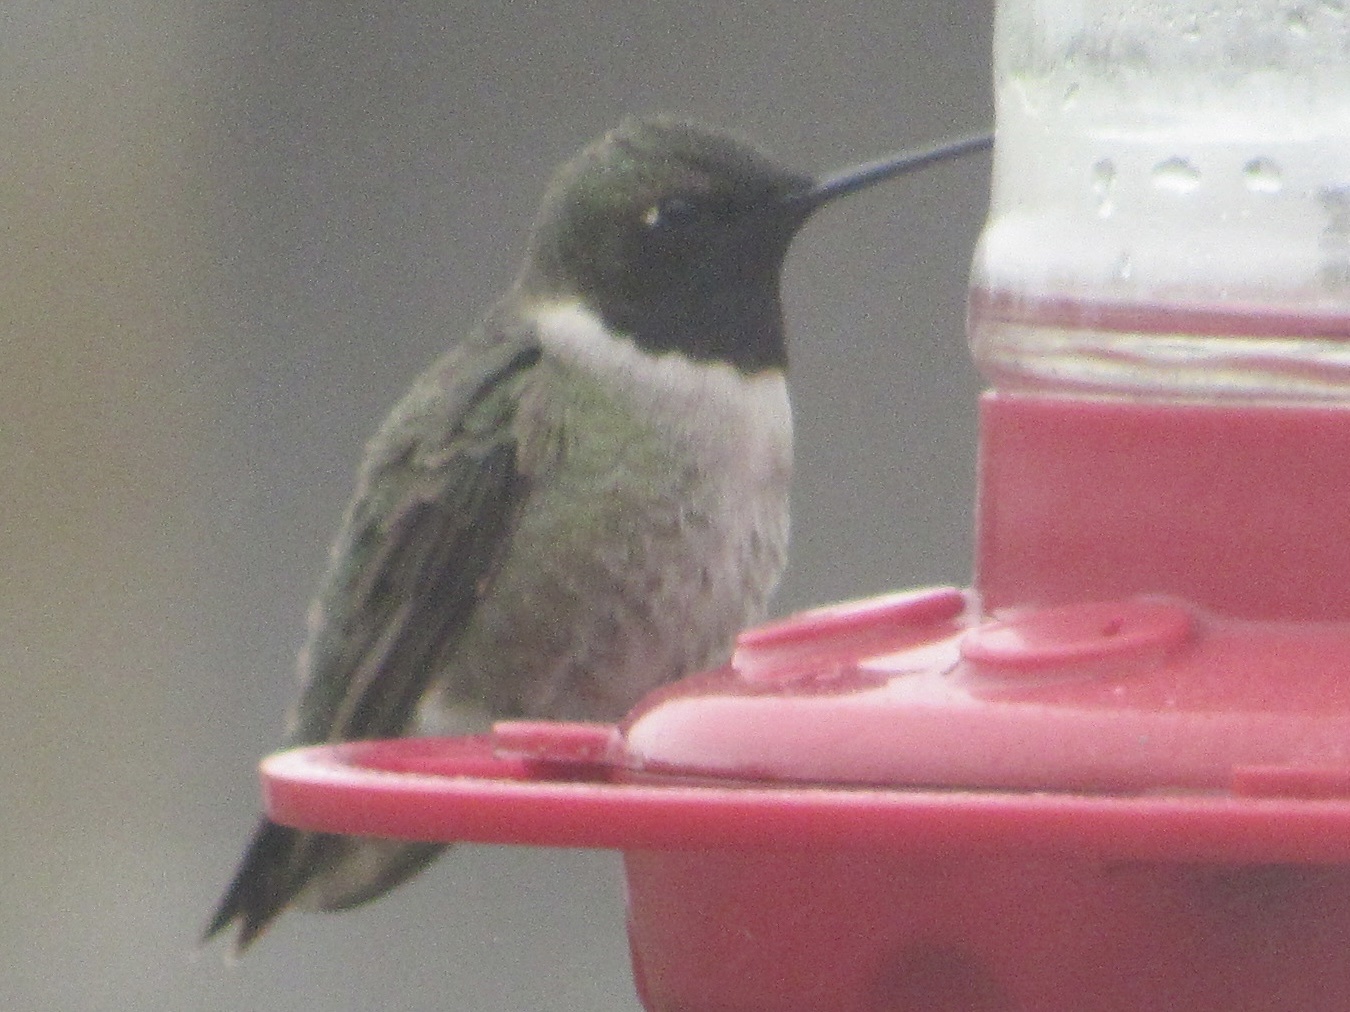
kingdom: Animalia
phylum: Chordata
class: Aves
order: Apodiformes
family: Trochilidae
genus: Archilochus
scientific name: Archilochus alexandri
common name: Black-chinned hummingbird
